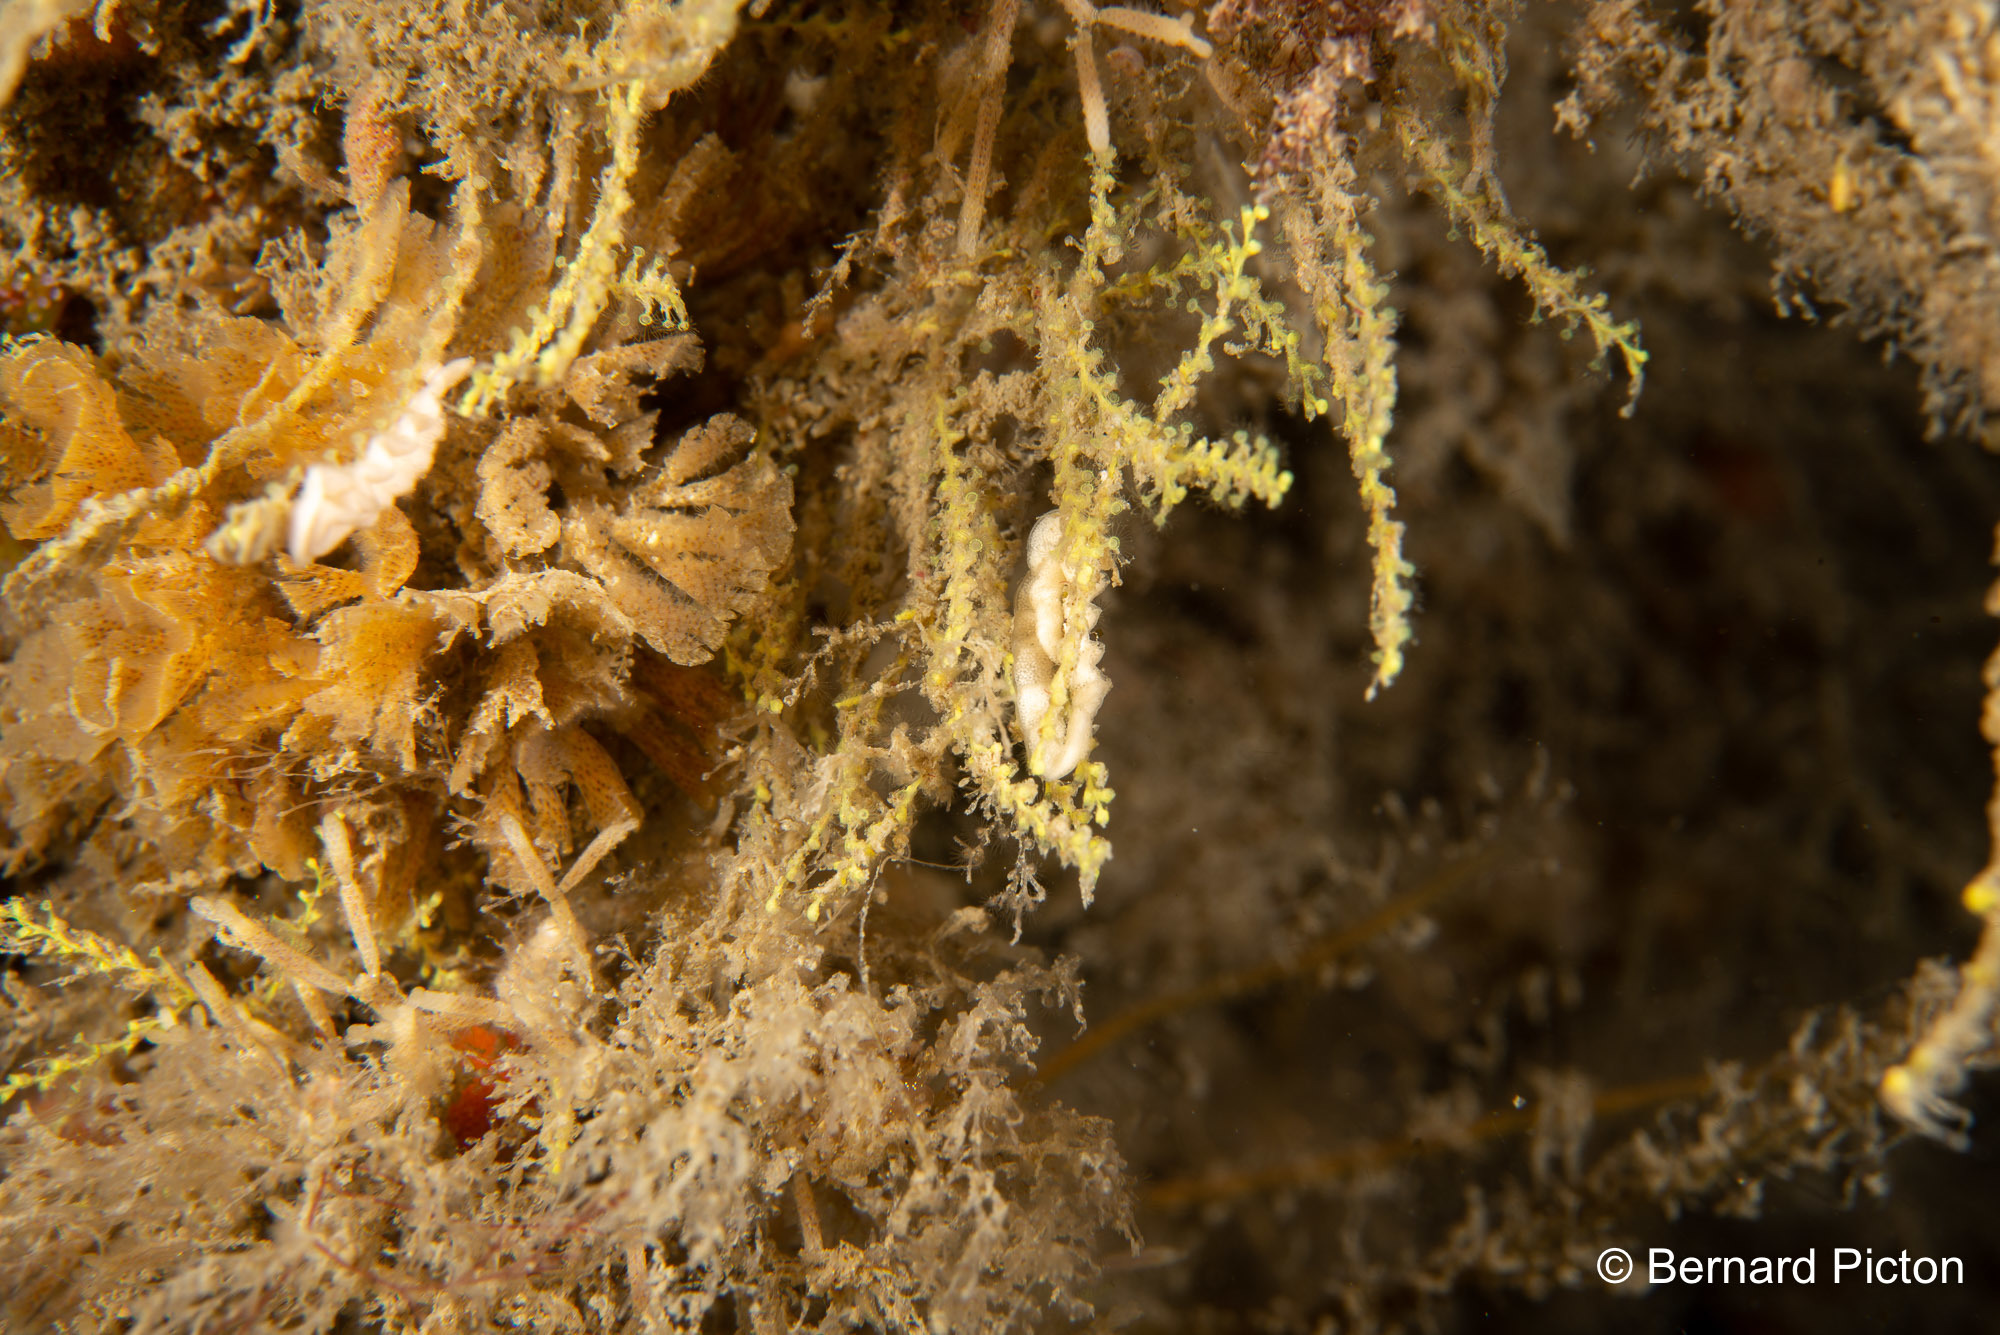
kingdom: Animalia
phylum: Mollusca
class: Gastropoda
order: Nudibranchia
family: Dotidae
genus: Doto
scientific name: Doto tuberculata
